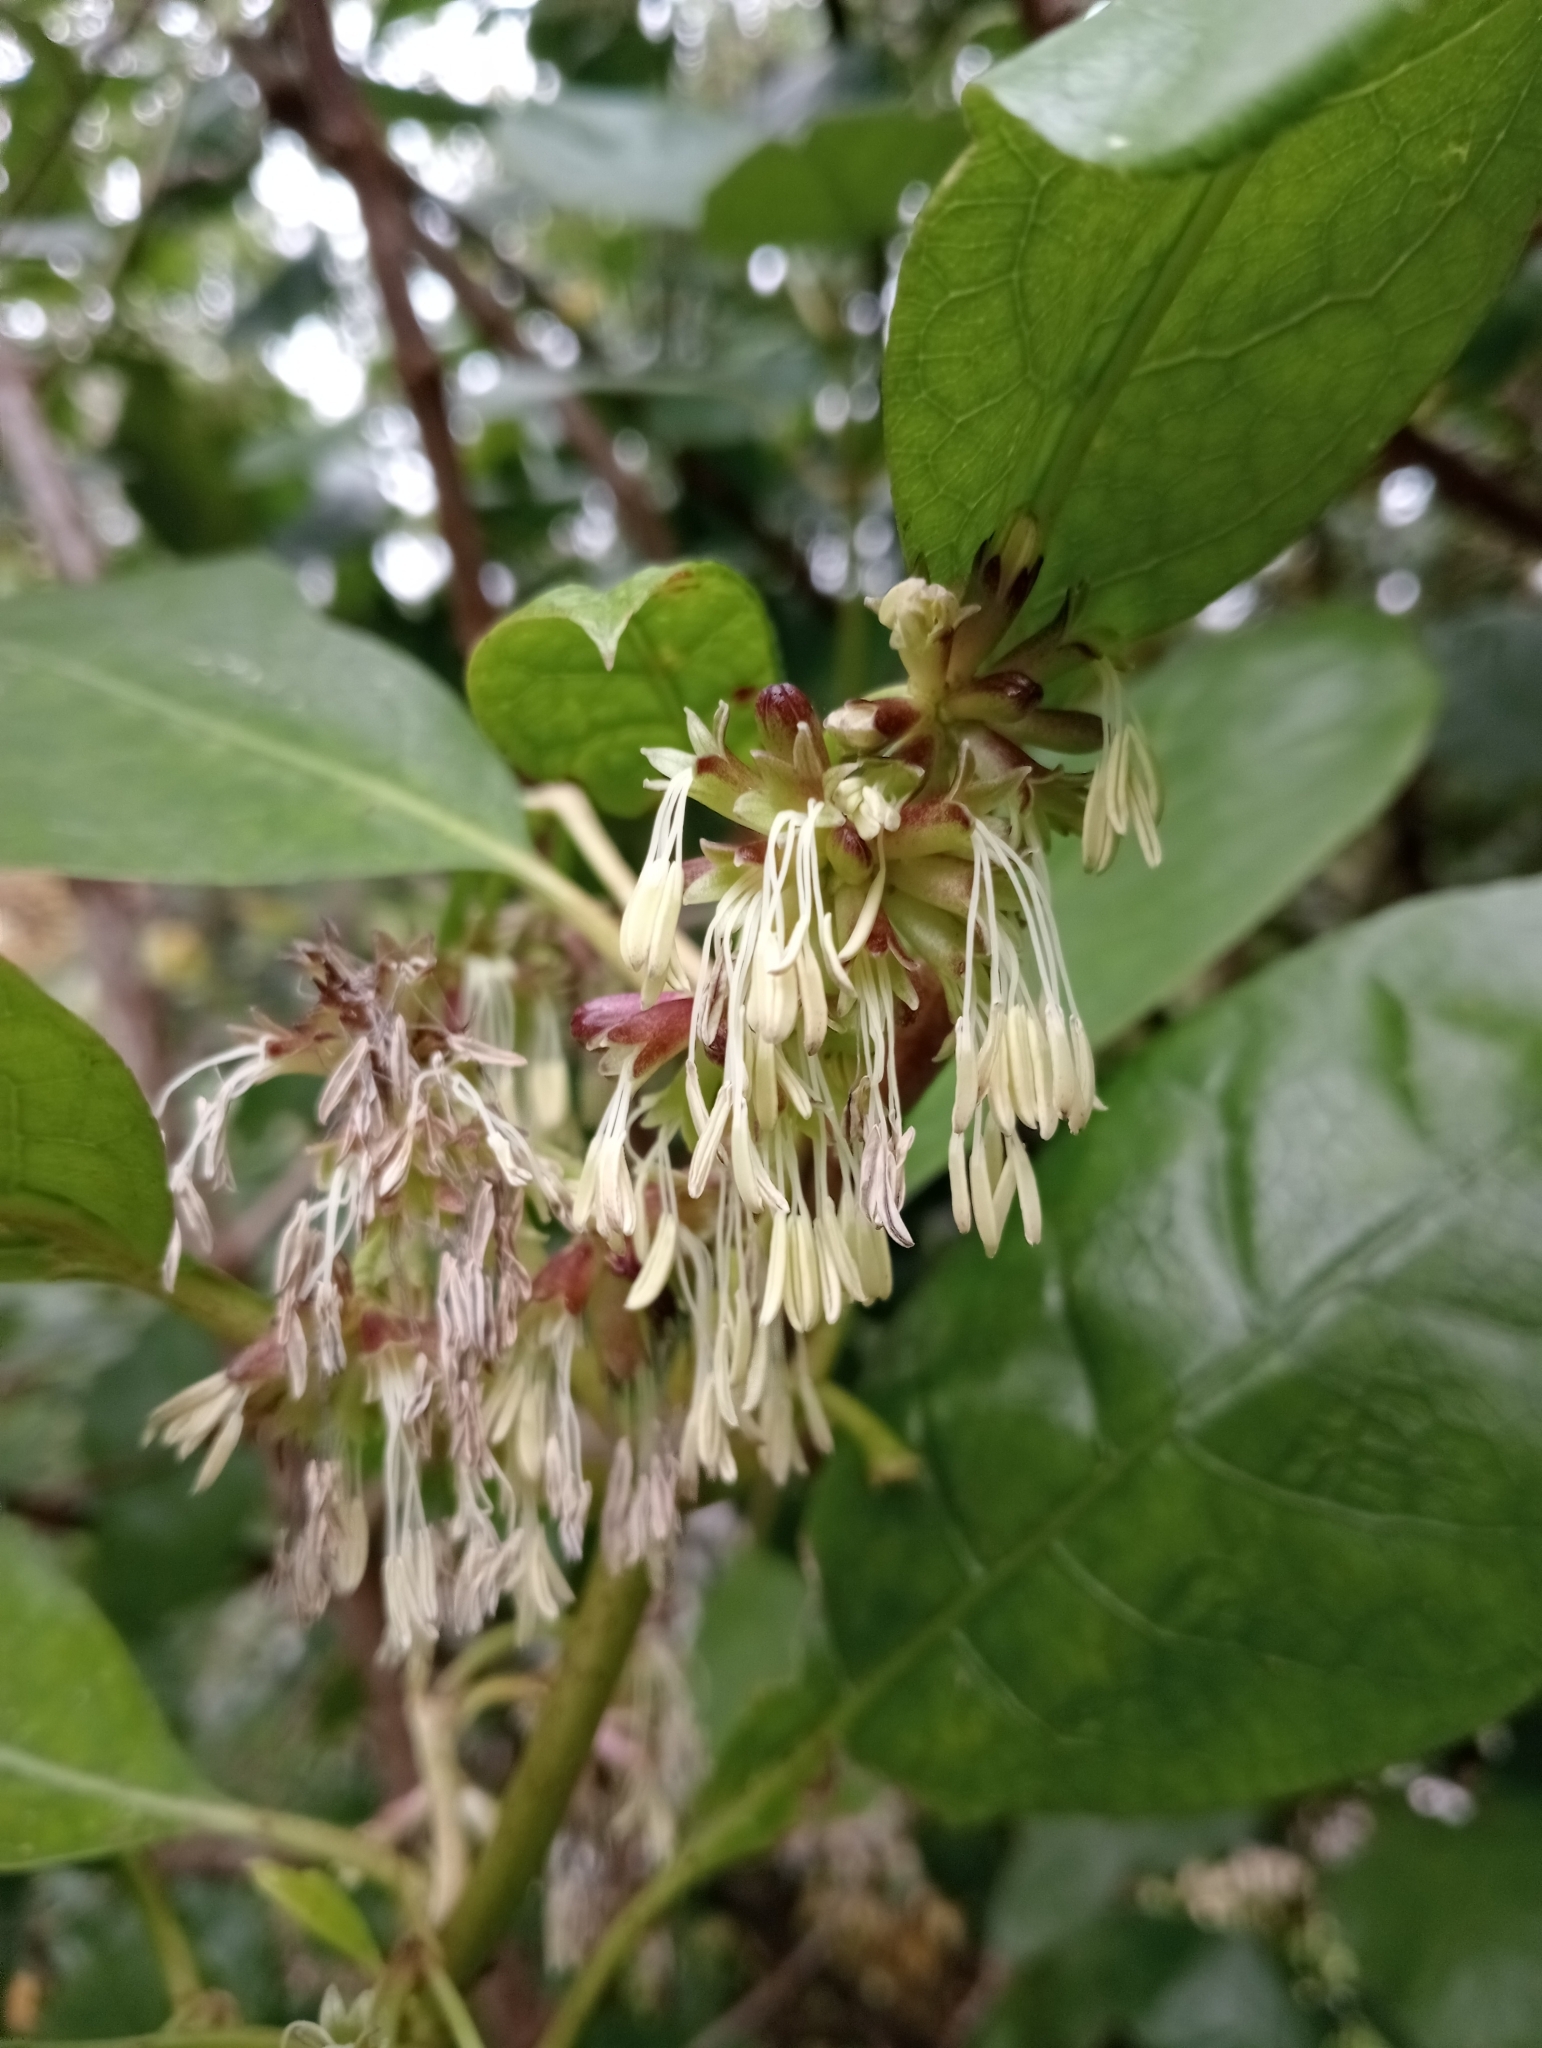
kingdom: Plantae
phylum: Tracheophyta
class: Magnoliopsida
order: Gentianales
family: Rubiaceae
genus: Coprosma
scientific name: Coprosma autumnalis
